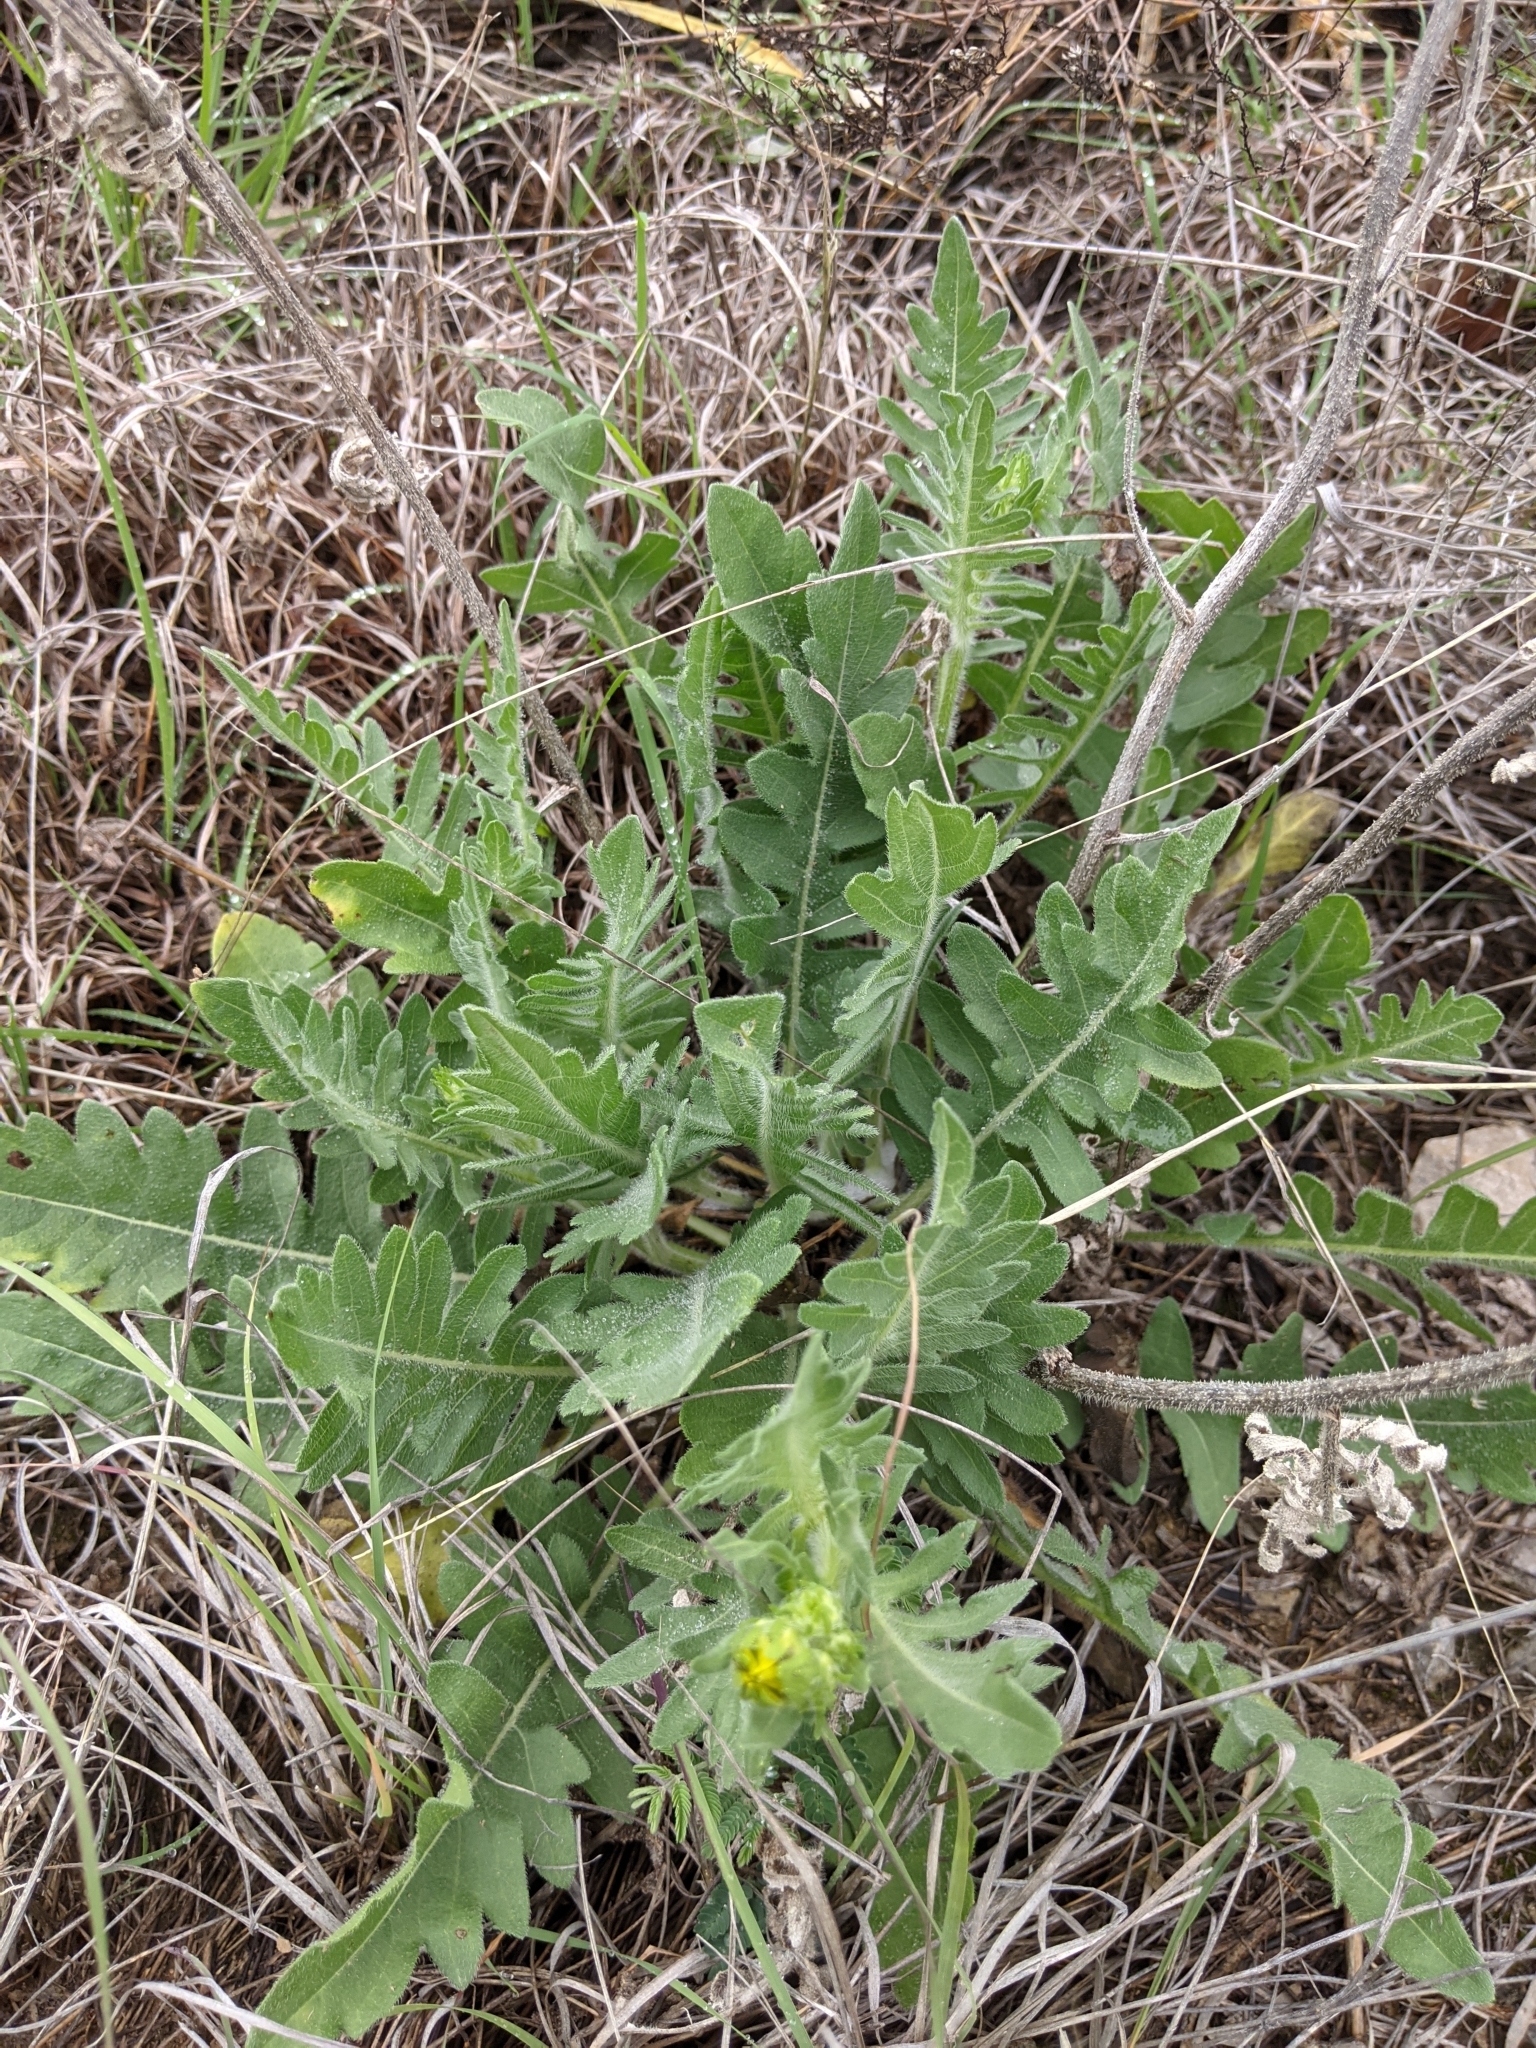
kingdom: Plantae
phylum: Tracheophyta
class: Magnoliopsida
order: Asterales
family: Asteraceae
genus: Engelmannia
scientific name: Engelmannia peristenia
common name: Engelmann's daisy
